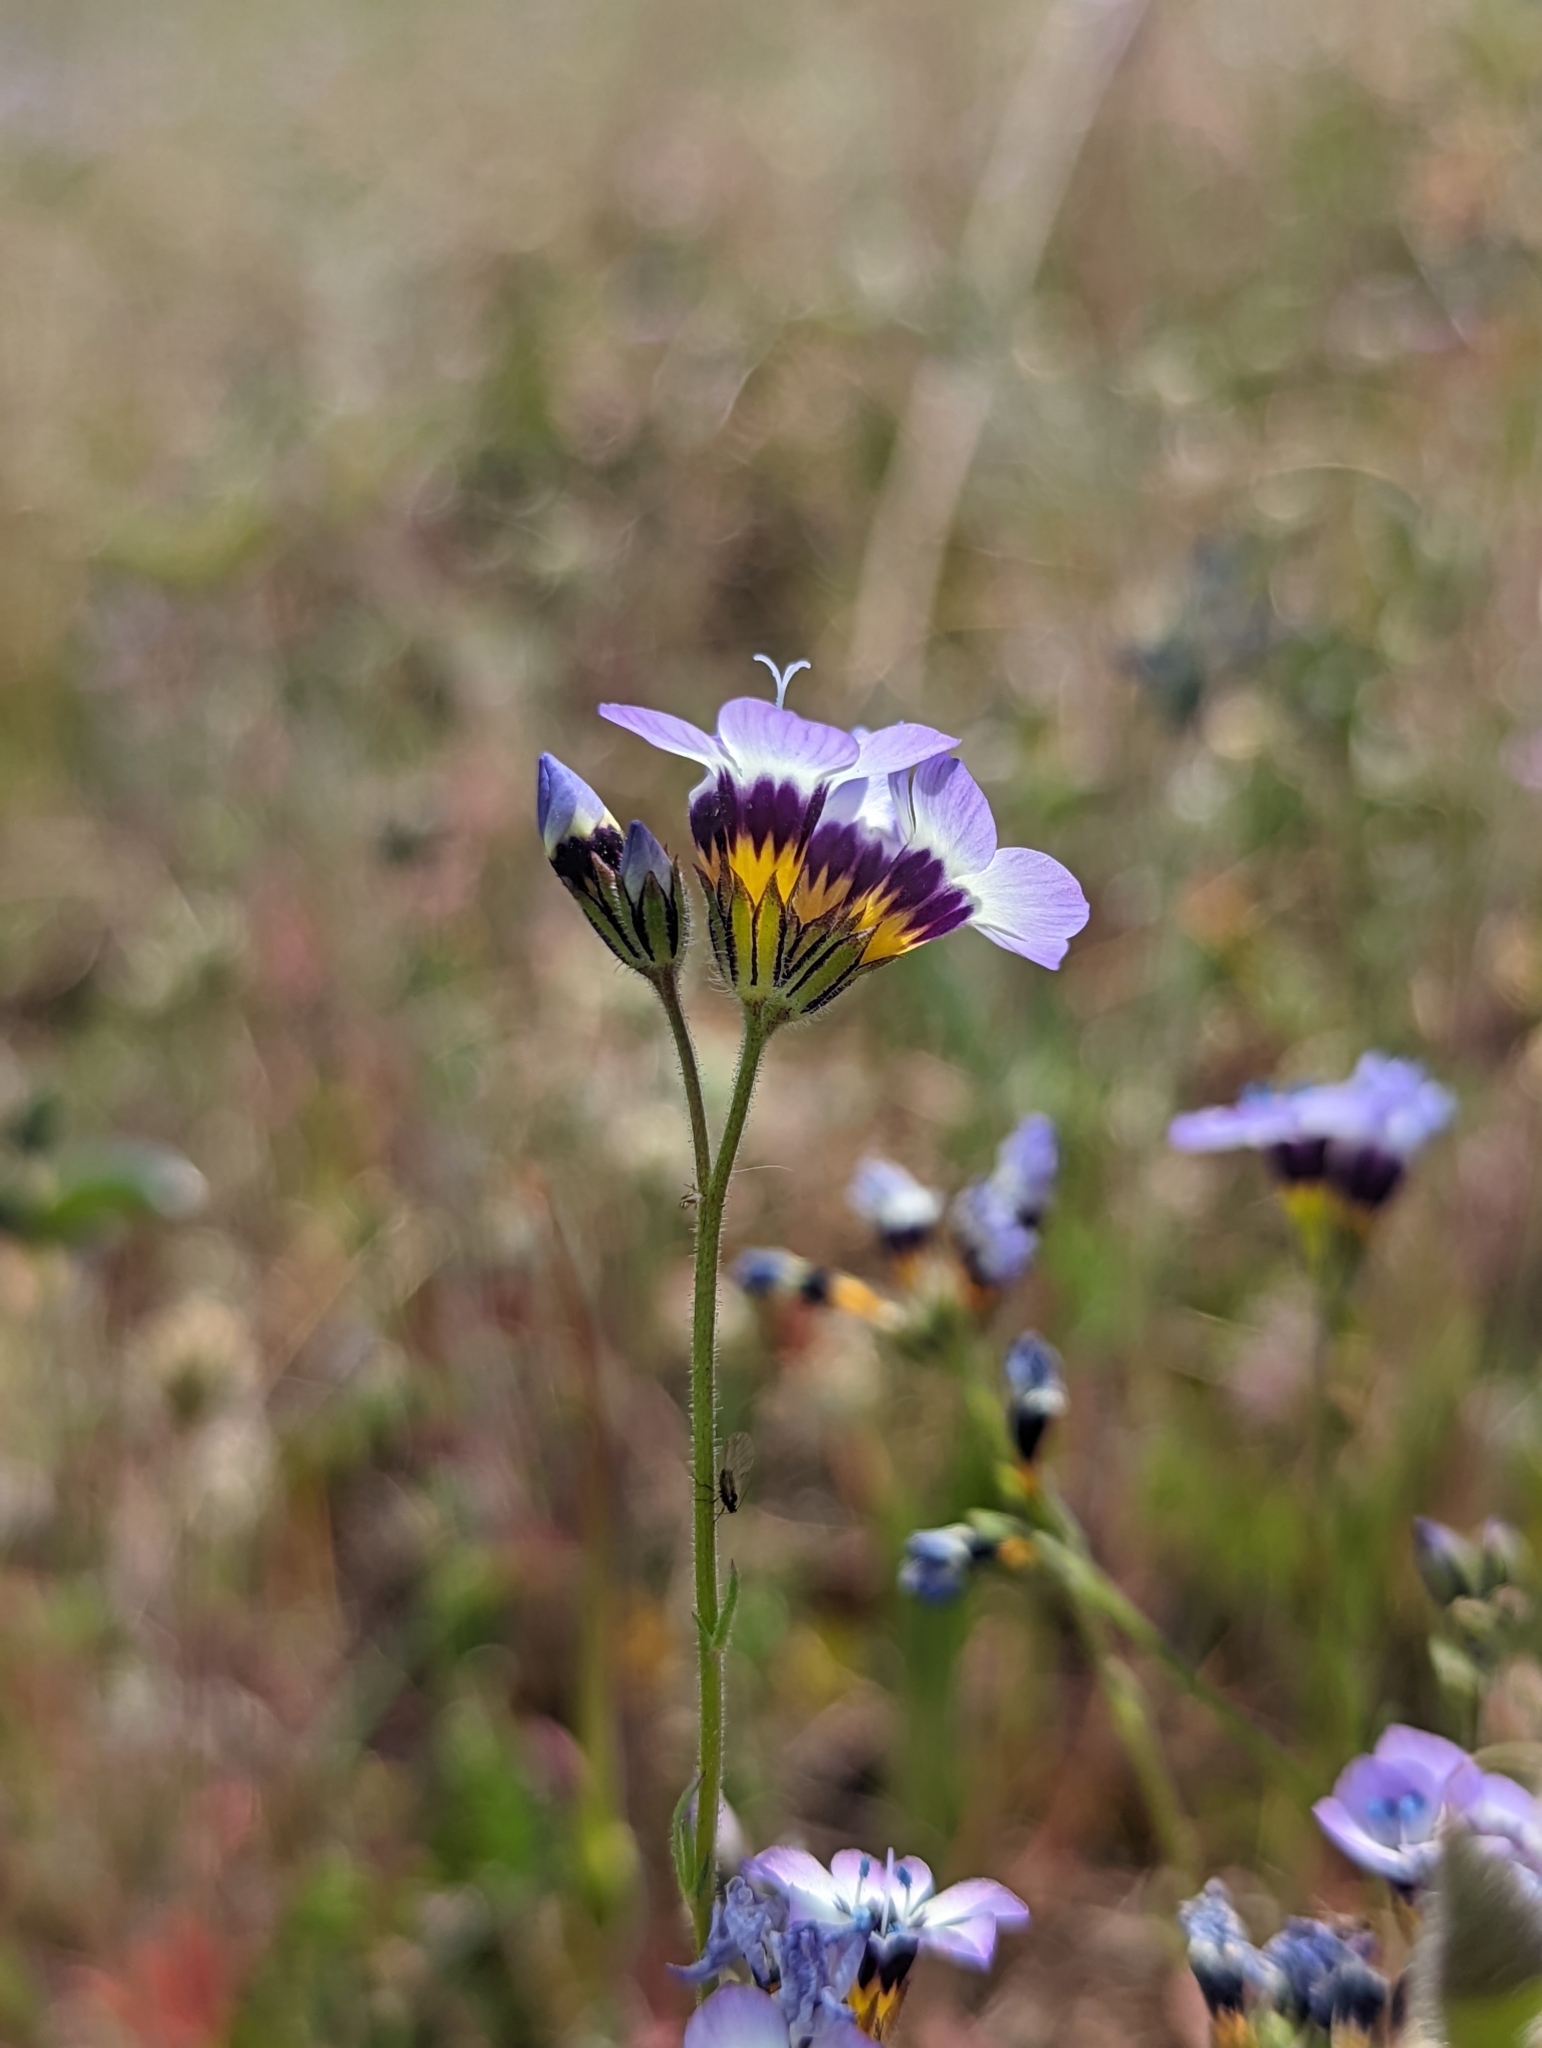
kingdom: Plantae
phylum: Tracheophyta
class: Magnoliopsida
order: Ericales
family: Polemoniaceae
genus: Gilia
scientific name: Gilia tricolor
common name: Bird's-eyes
